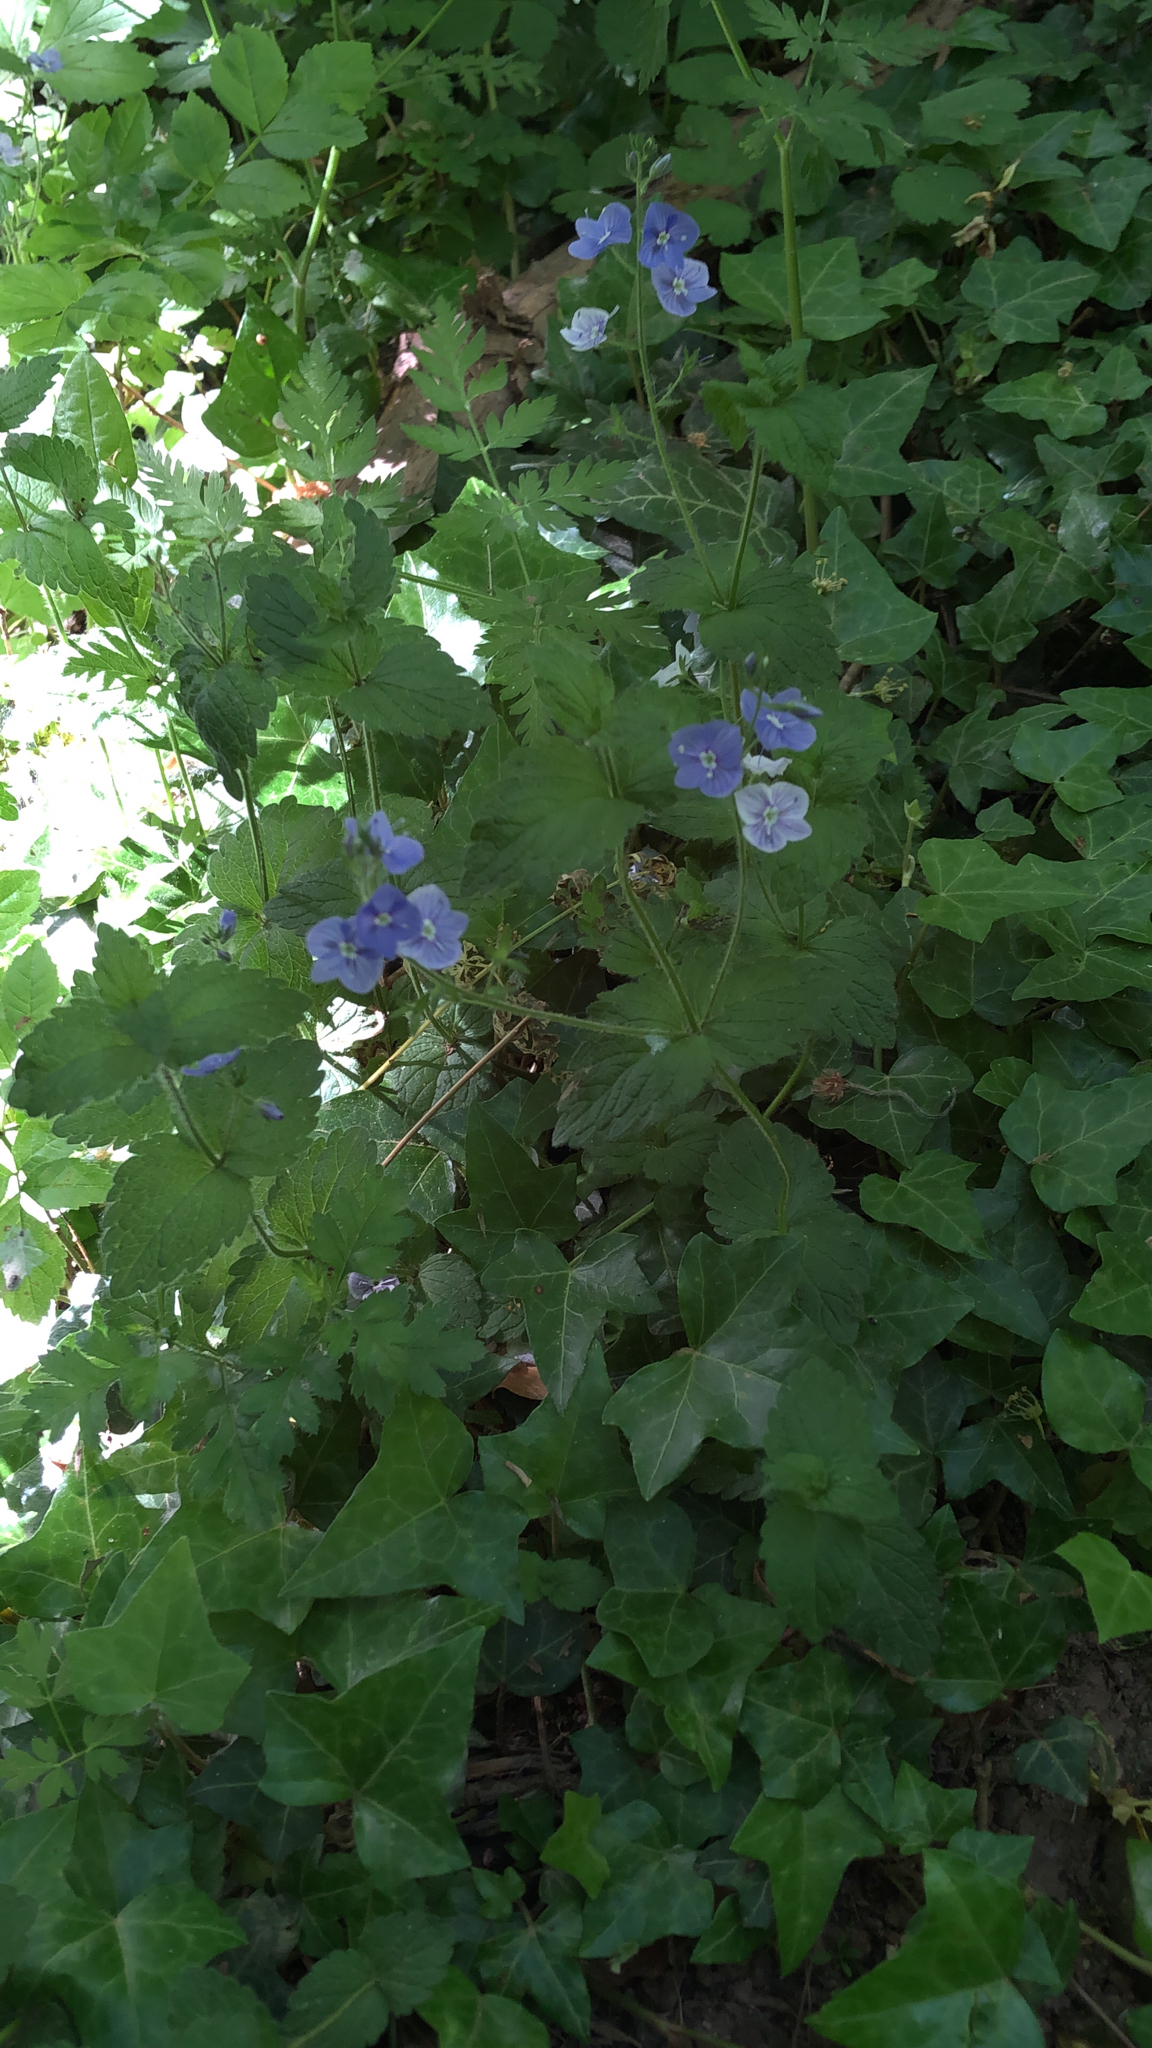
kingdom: Plantae
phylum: Tracheophyta
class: Magnoliopsida
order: Lamiales
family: Plantaginaceae
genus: Veronica
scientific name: Veronica chamaedrys
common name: Germander speedwell
